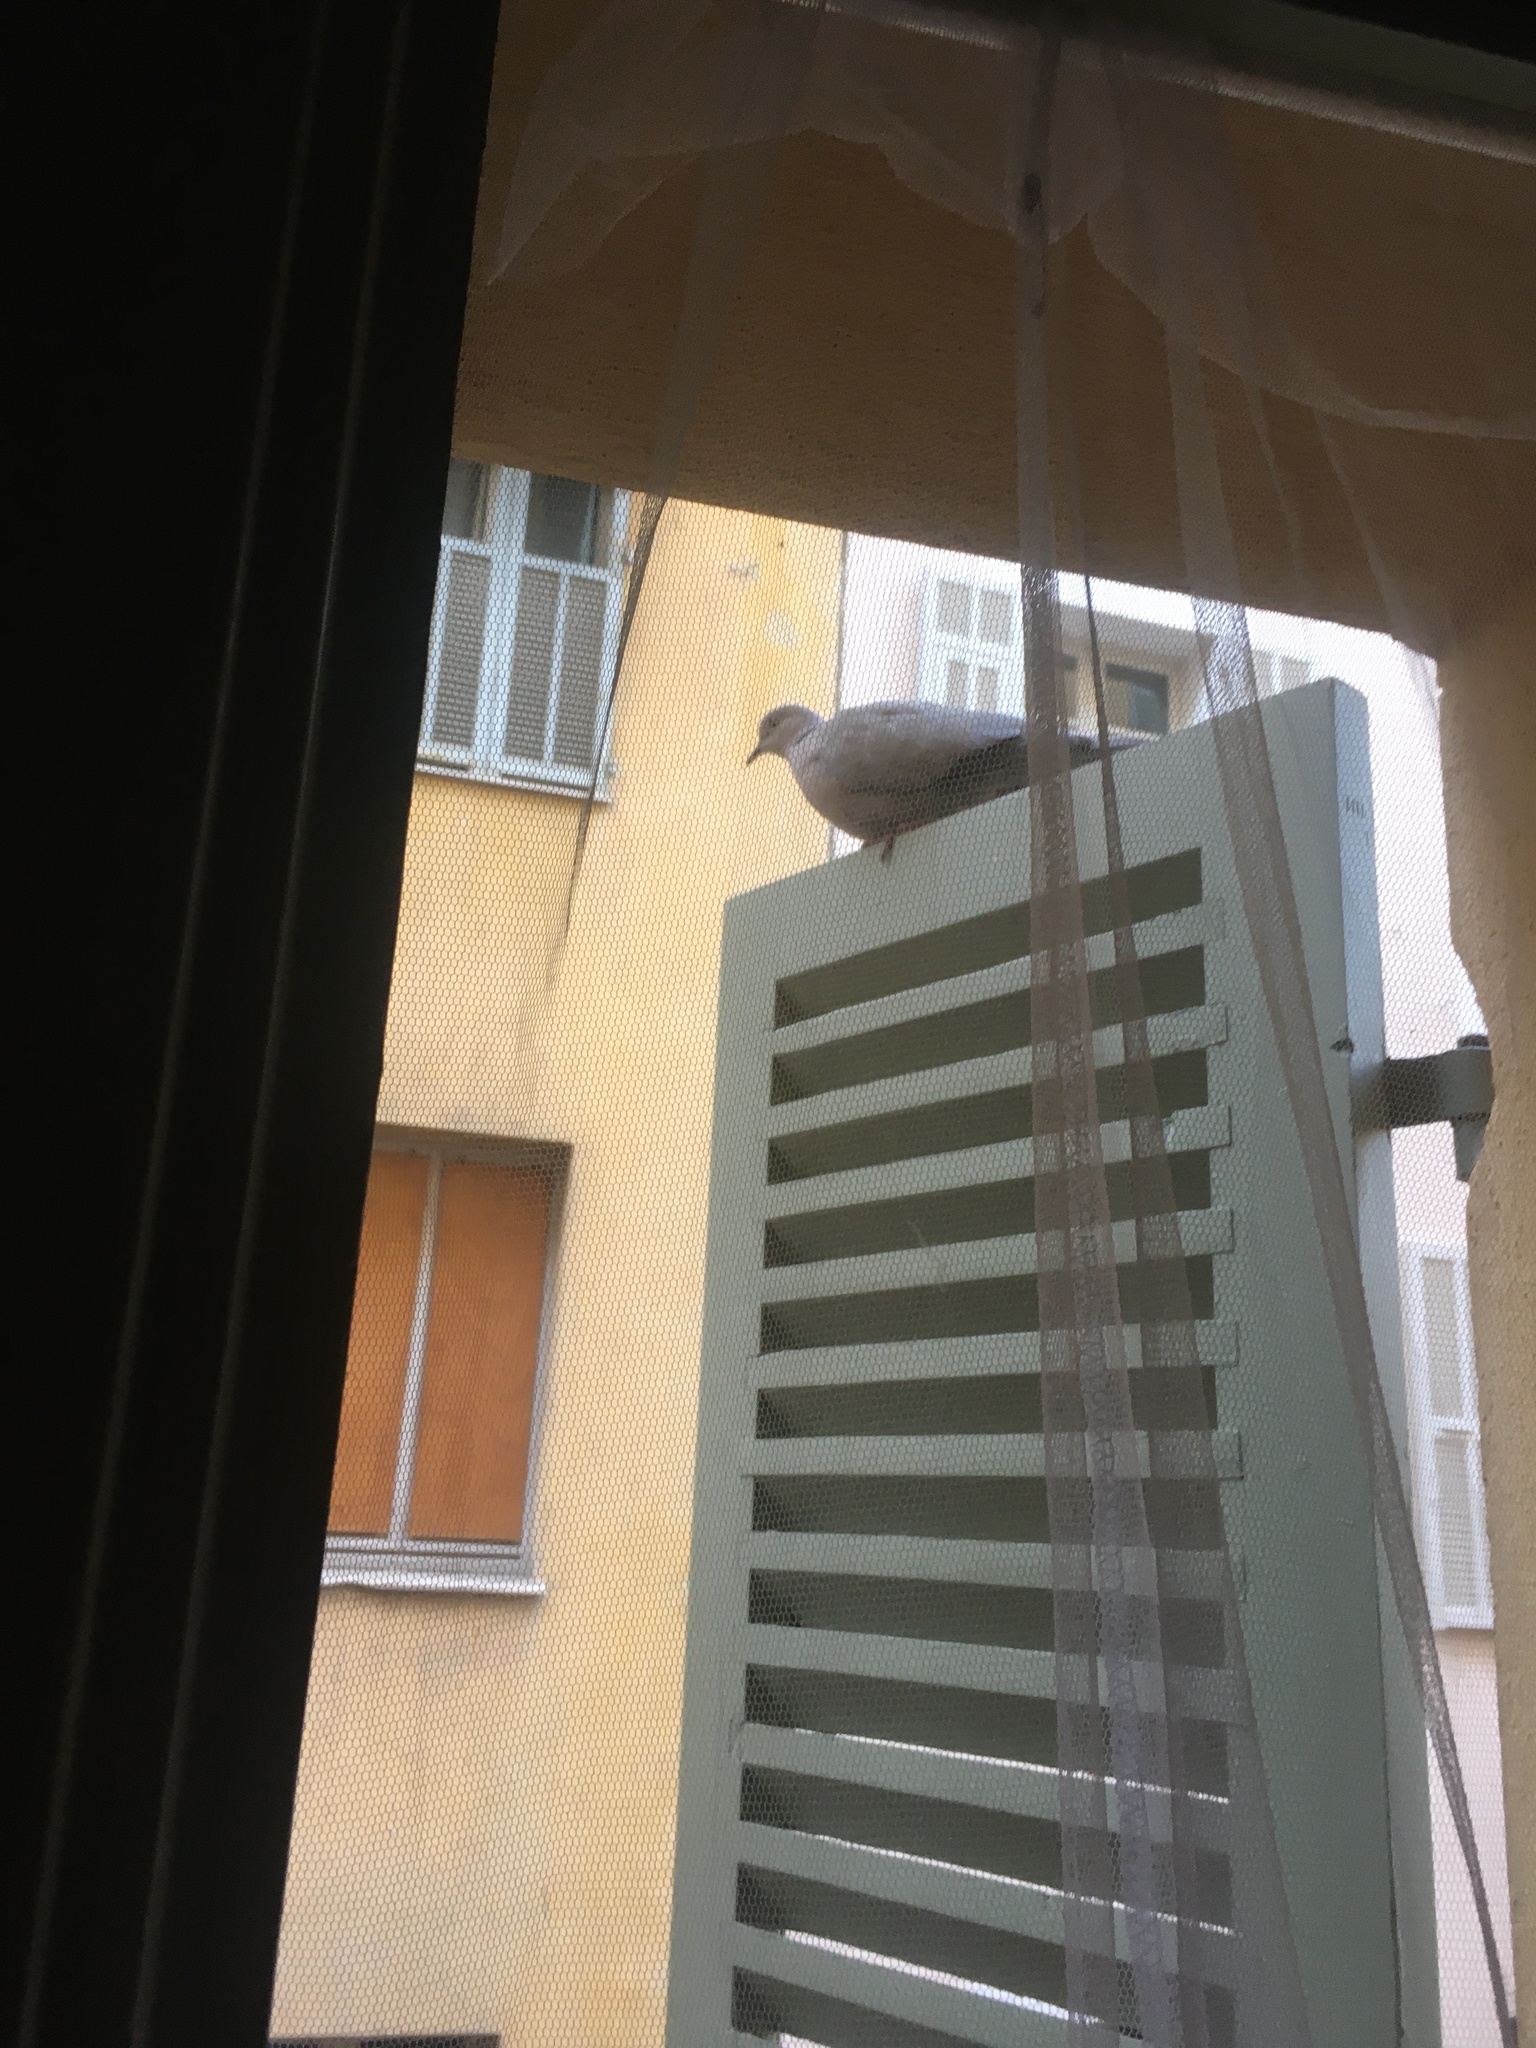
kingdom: Animalia
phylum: Chordata
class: Aves
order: Columbiformes
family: Columbidae
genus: Streptopelia
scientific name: Streptopelia decaocto
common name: Eurasian collared dove
